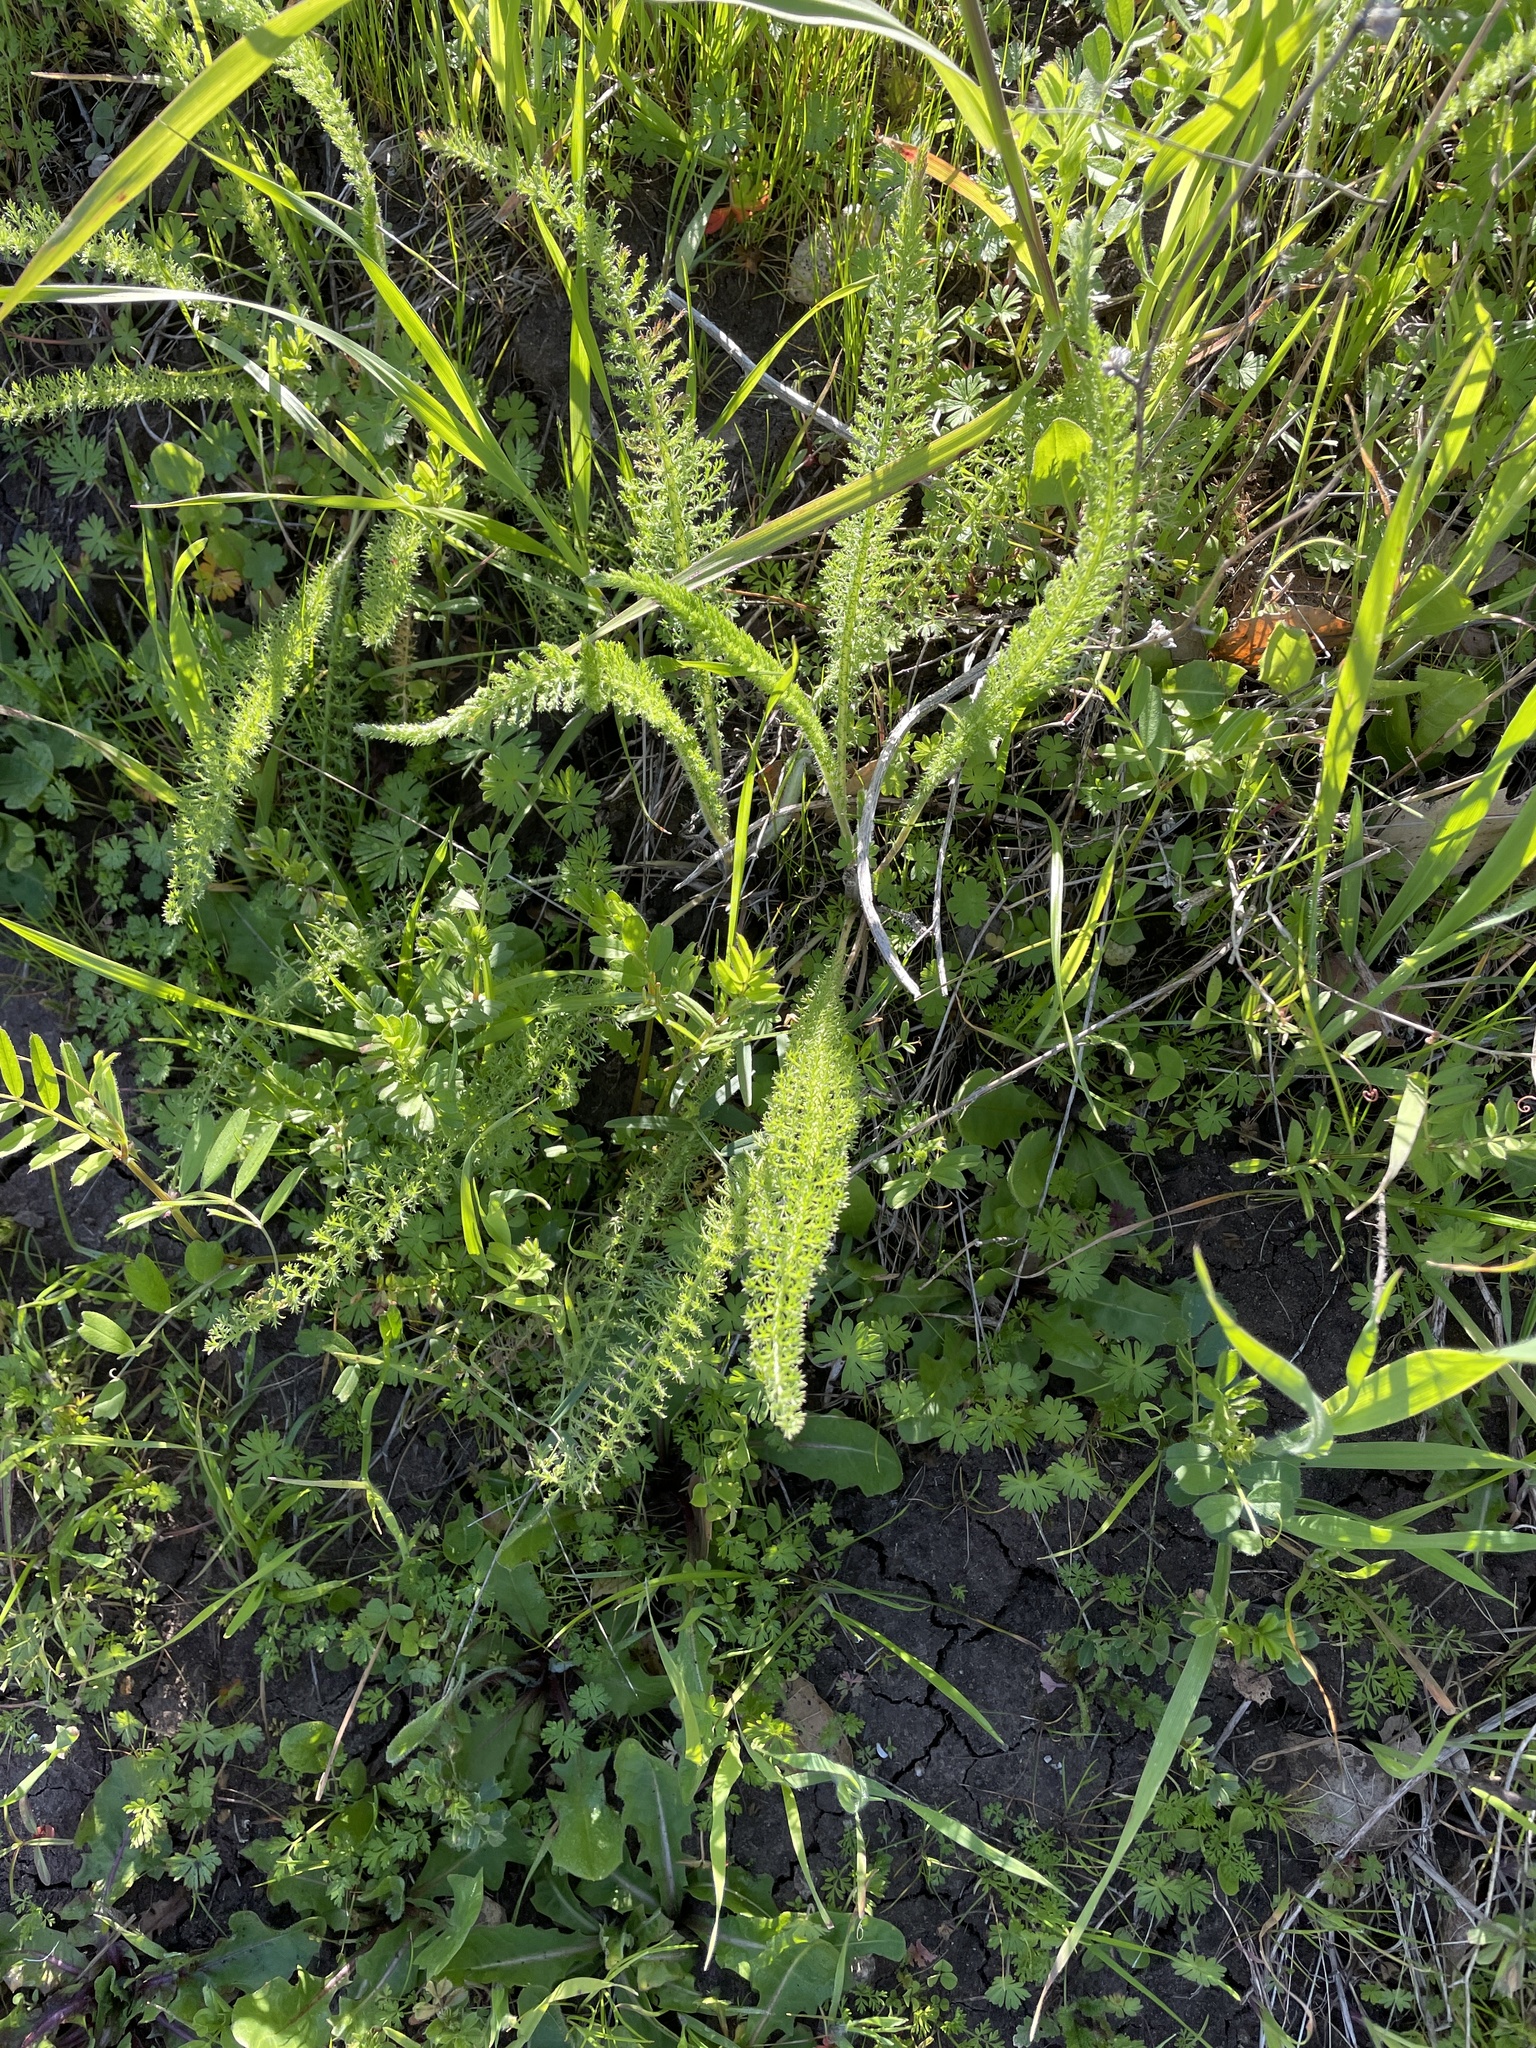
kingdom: Plantae
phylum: Tracheophyta
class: Magnoliopsida
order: Asterales
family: Asteraceae
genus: Achillea
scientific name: Achillea millefolium
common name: Yarrow
